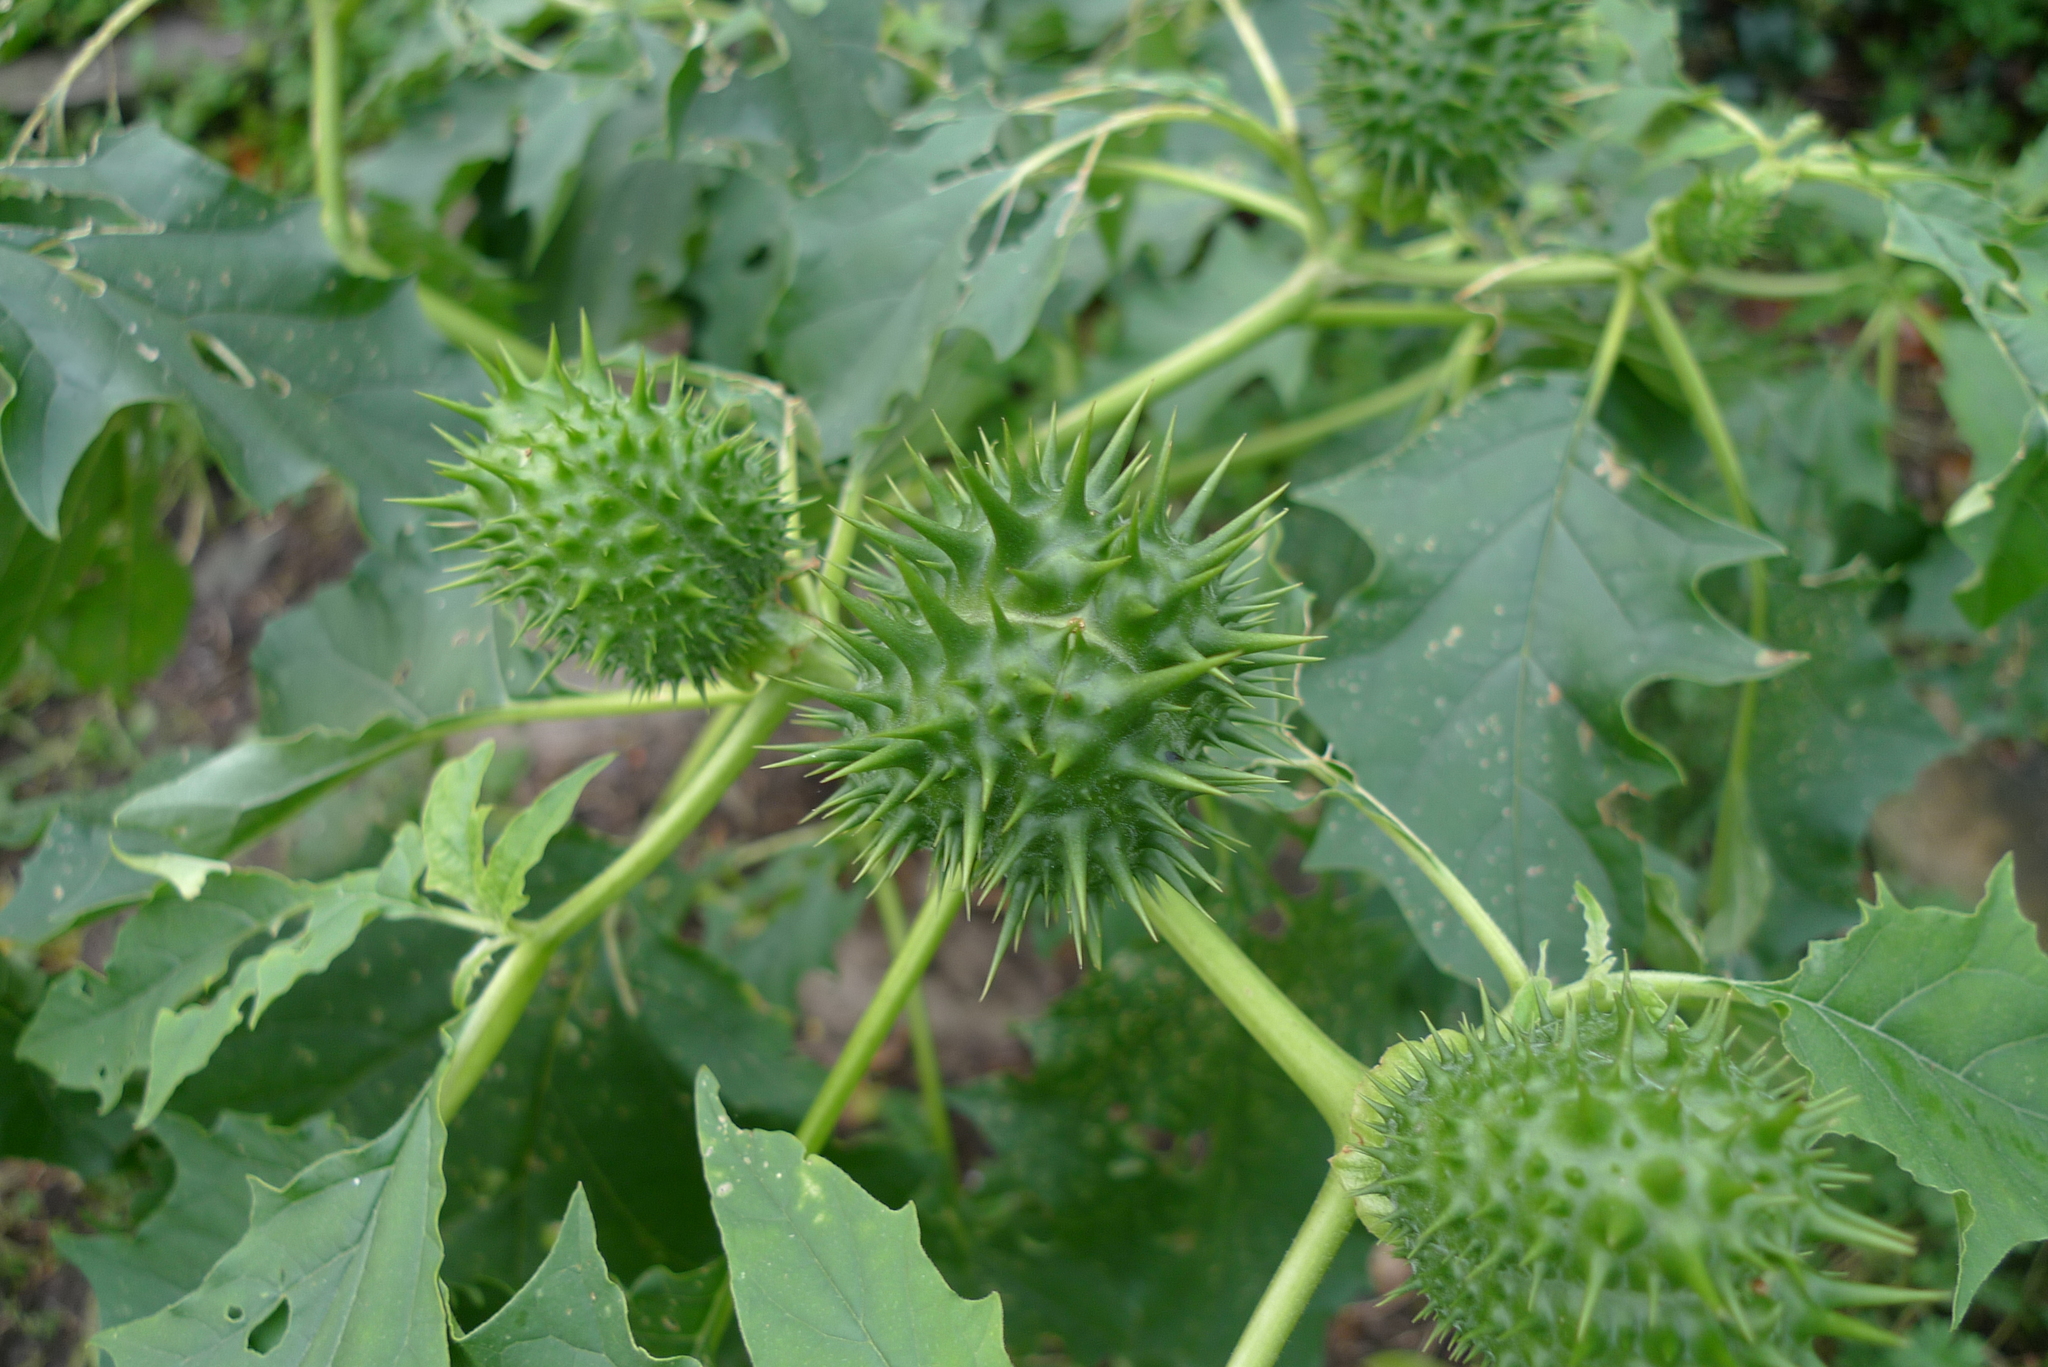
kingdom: Plantae
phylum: Tracheophyta
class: Magnoliopsida
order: Solanales
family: Solanaceae
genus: Datura
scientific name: Datura stramonium
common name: Thorn-apple
